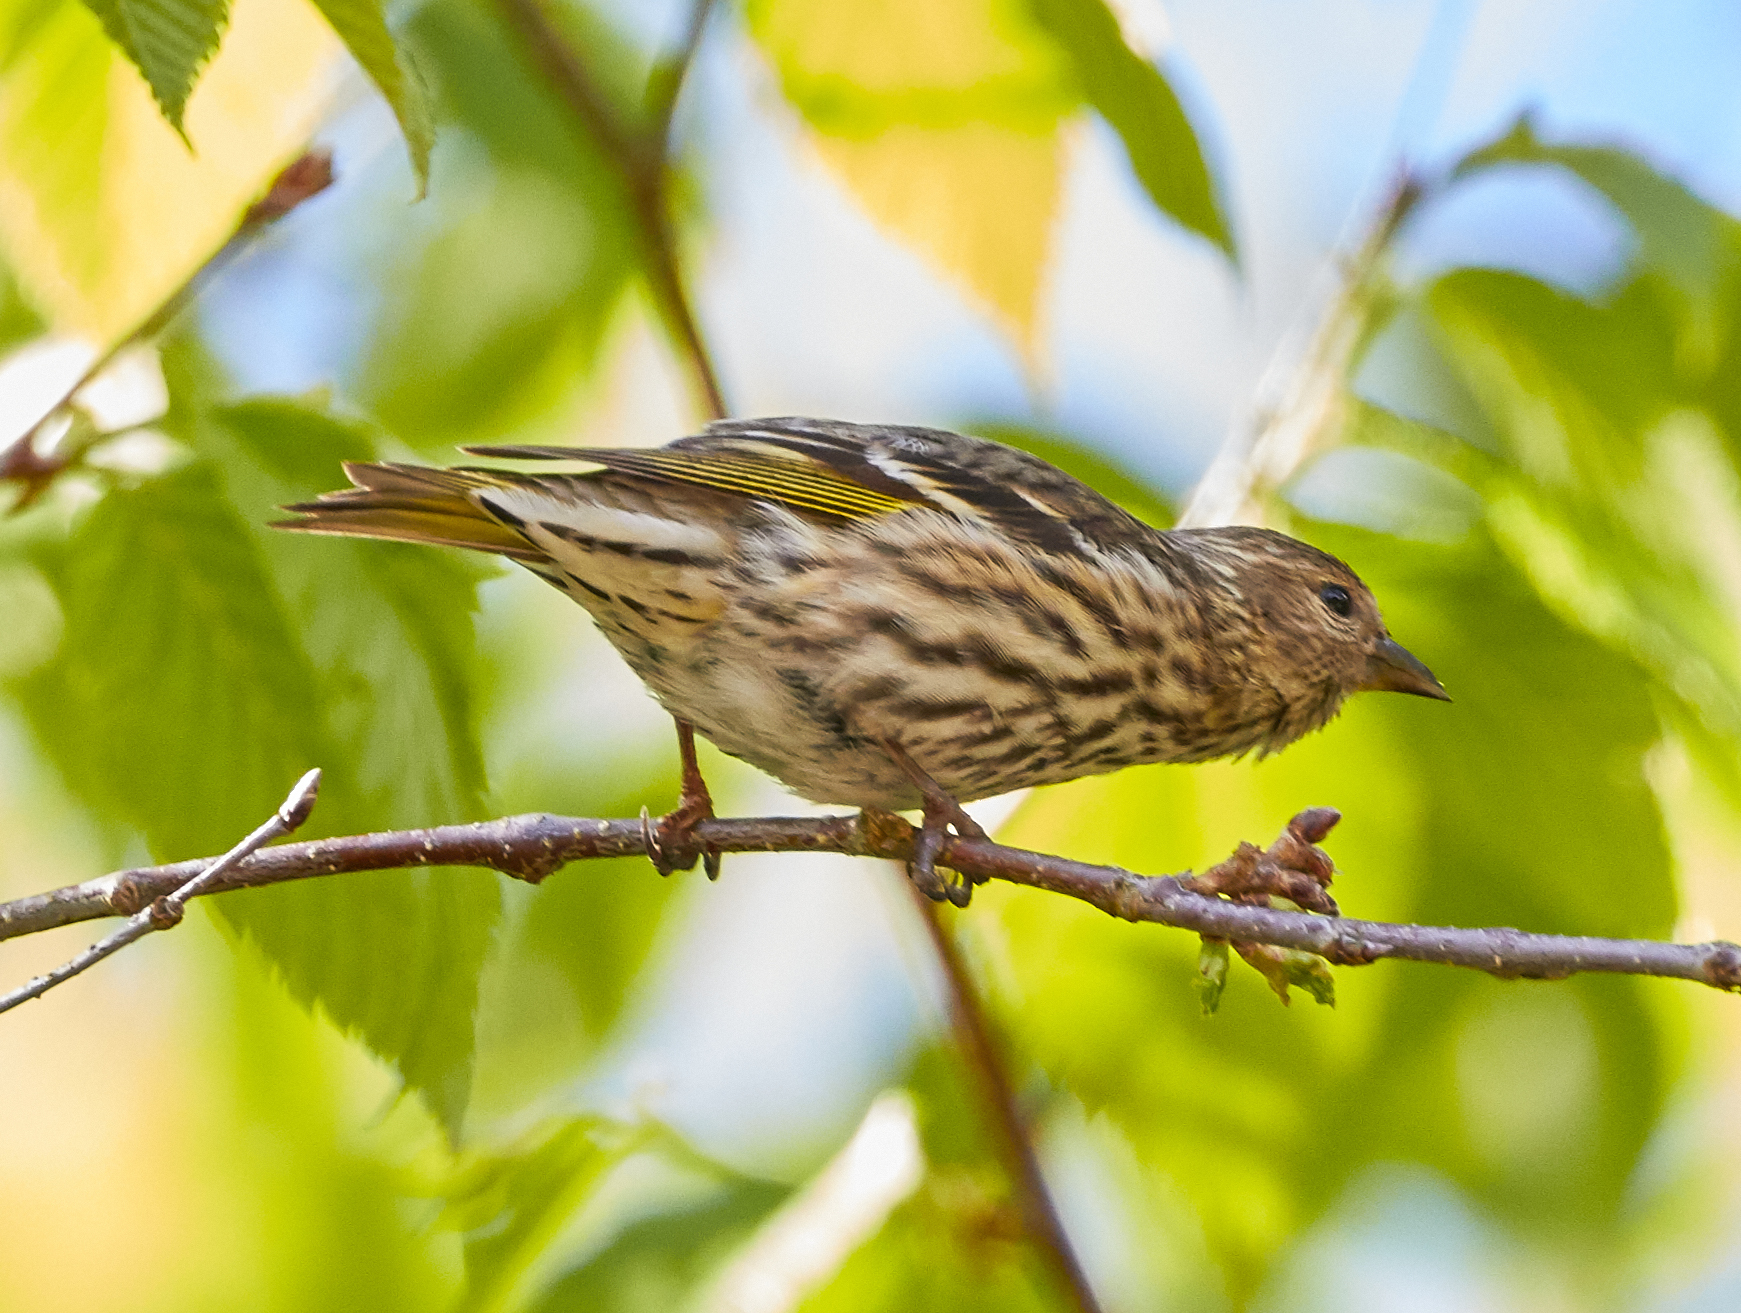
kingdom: Animalia
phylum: Chordata
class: Aves
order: Passeriformes
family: Fringillidae
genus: Spinus
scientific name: Spinus pinus
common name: Pine siskin
